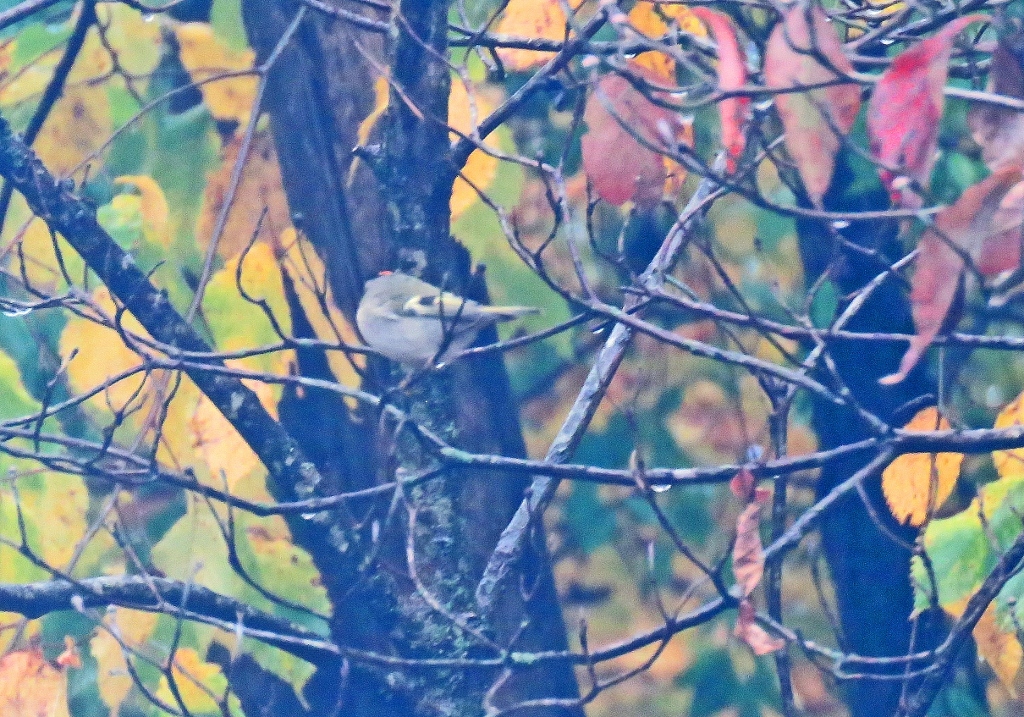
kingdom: Animalia
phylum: Chordata
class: Aves
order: Passeriformes
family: Regulidae
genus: Regulus
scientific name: Regulus satrapa
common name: Golden-crowned kinglet
